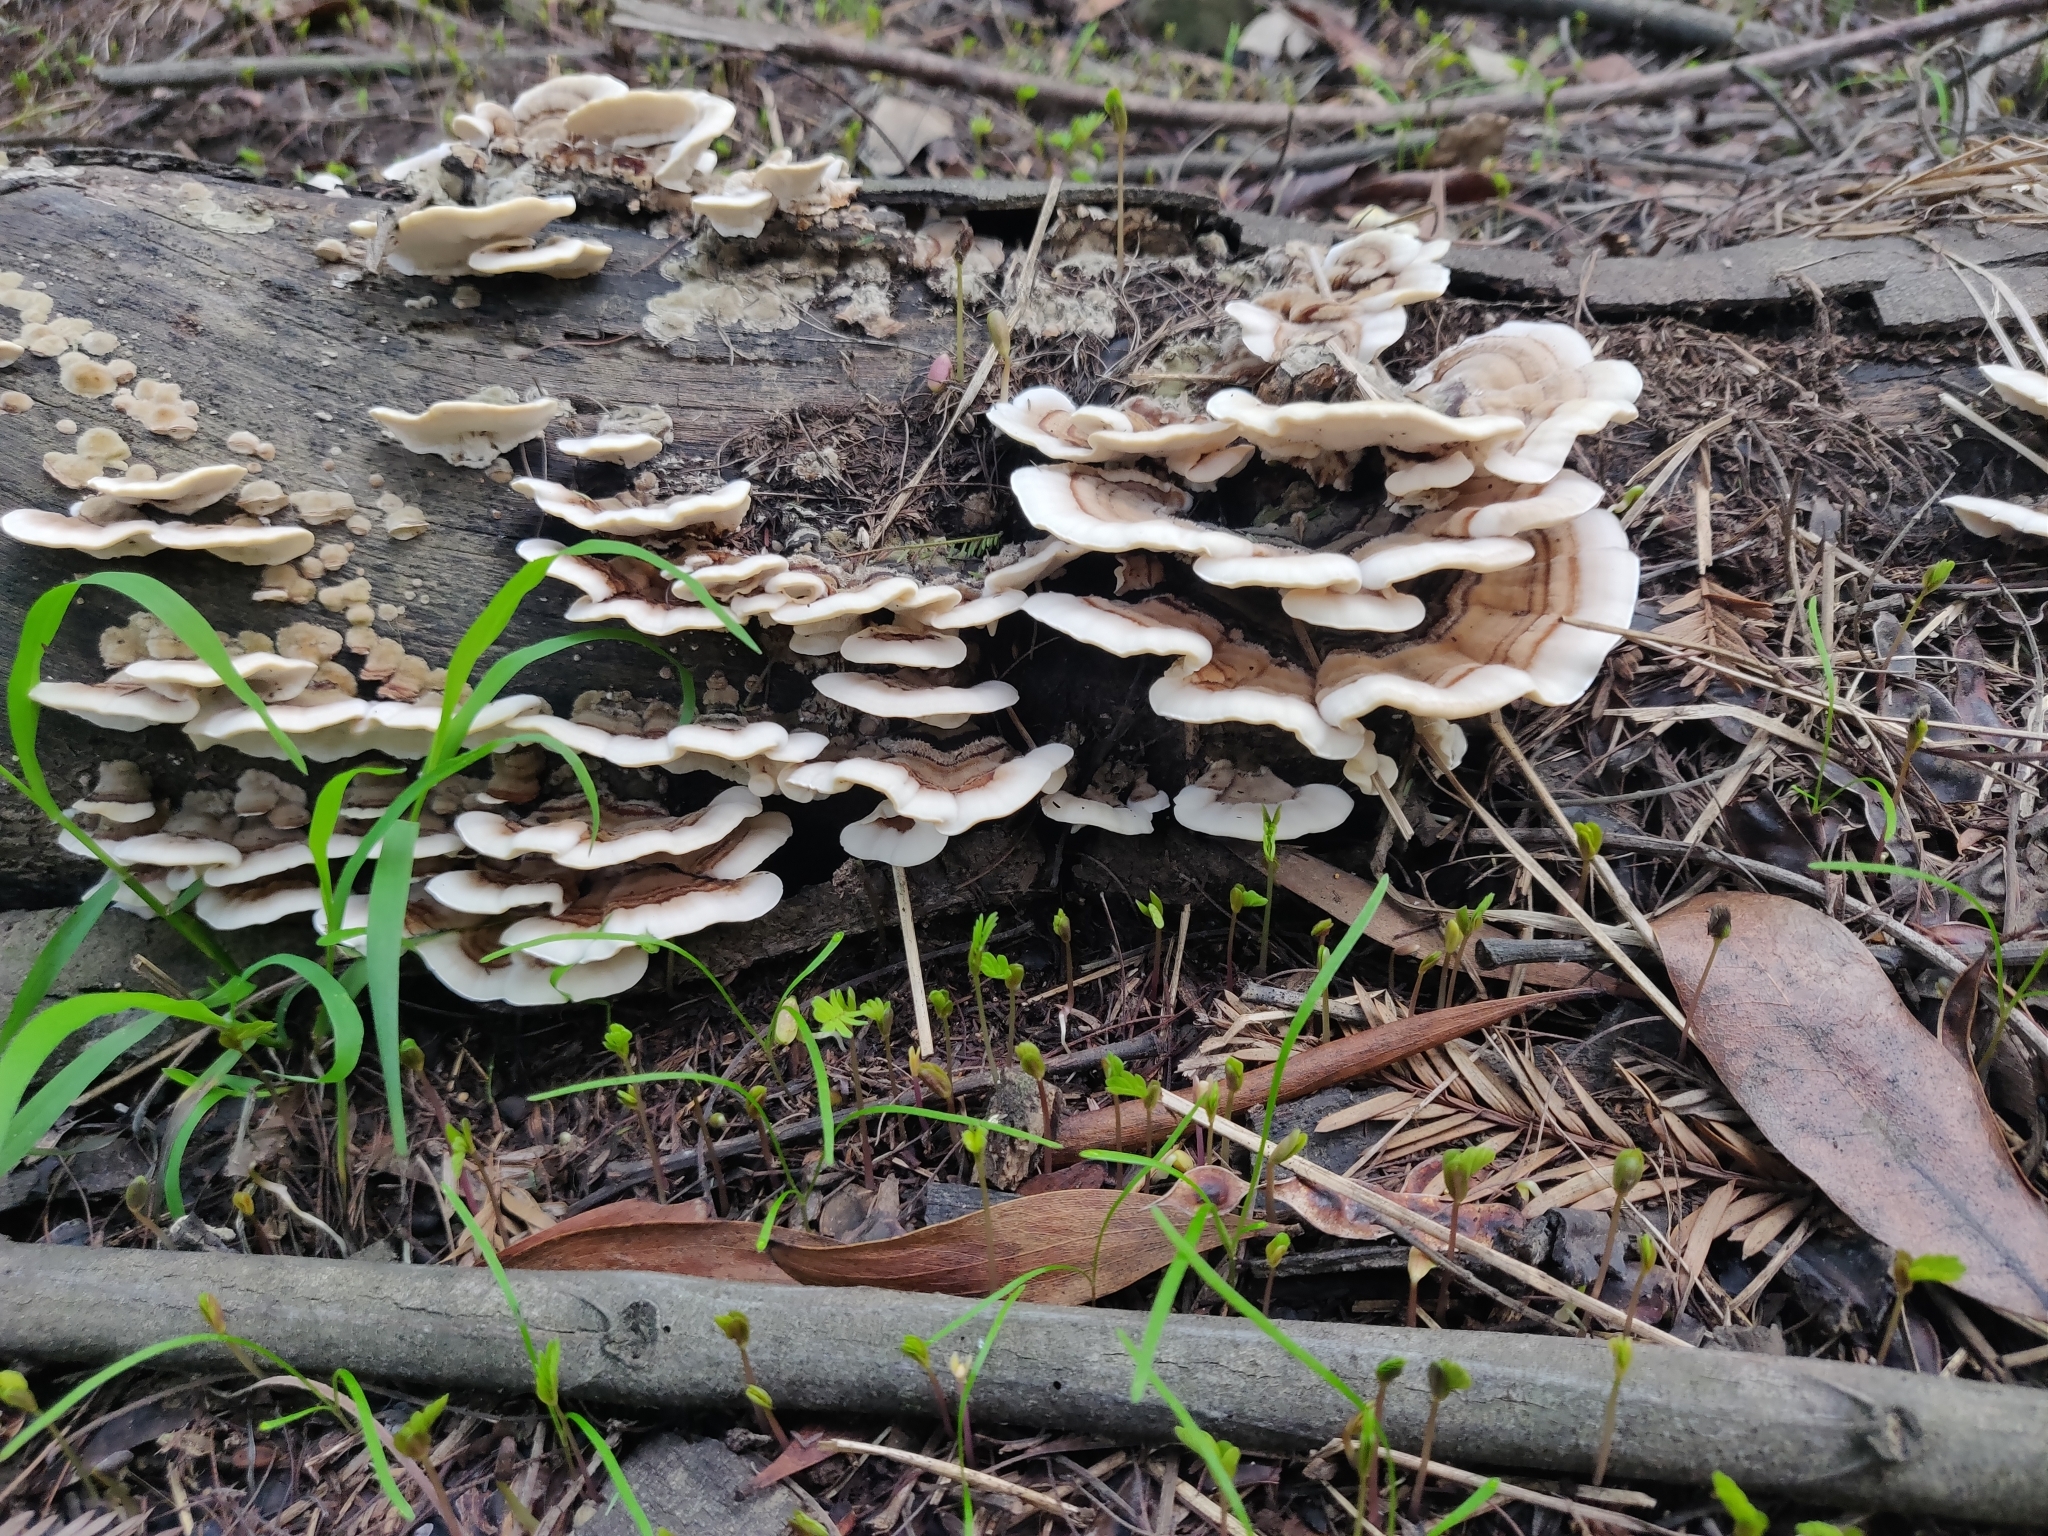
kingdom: Fungi
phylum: Basidiomycota
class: Agaricomycetes
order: Polyporales
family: Polyporaceae
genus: Trametes
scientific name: Trametes versicolor
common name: Turkeytail
